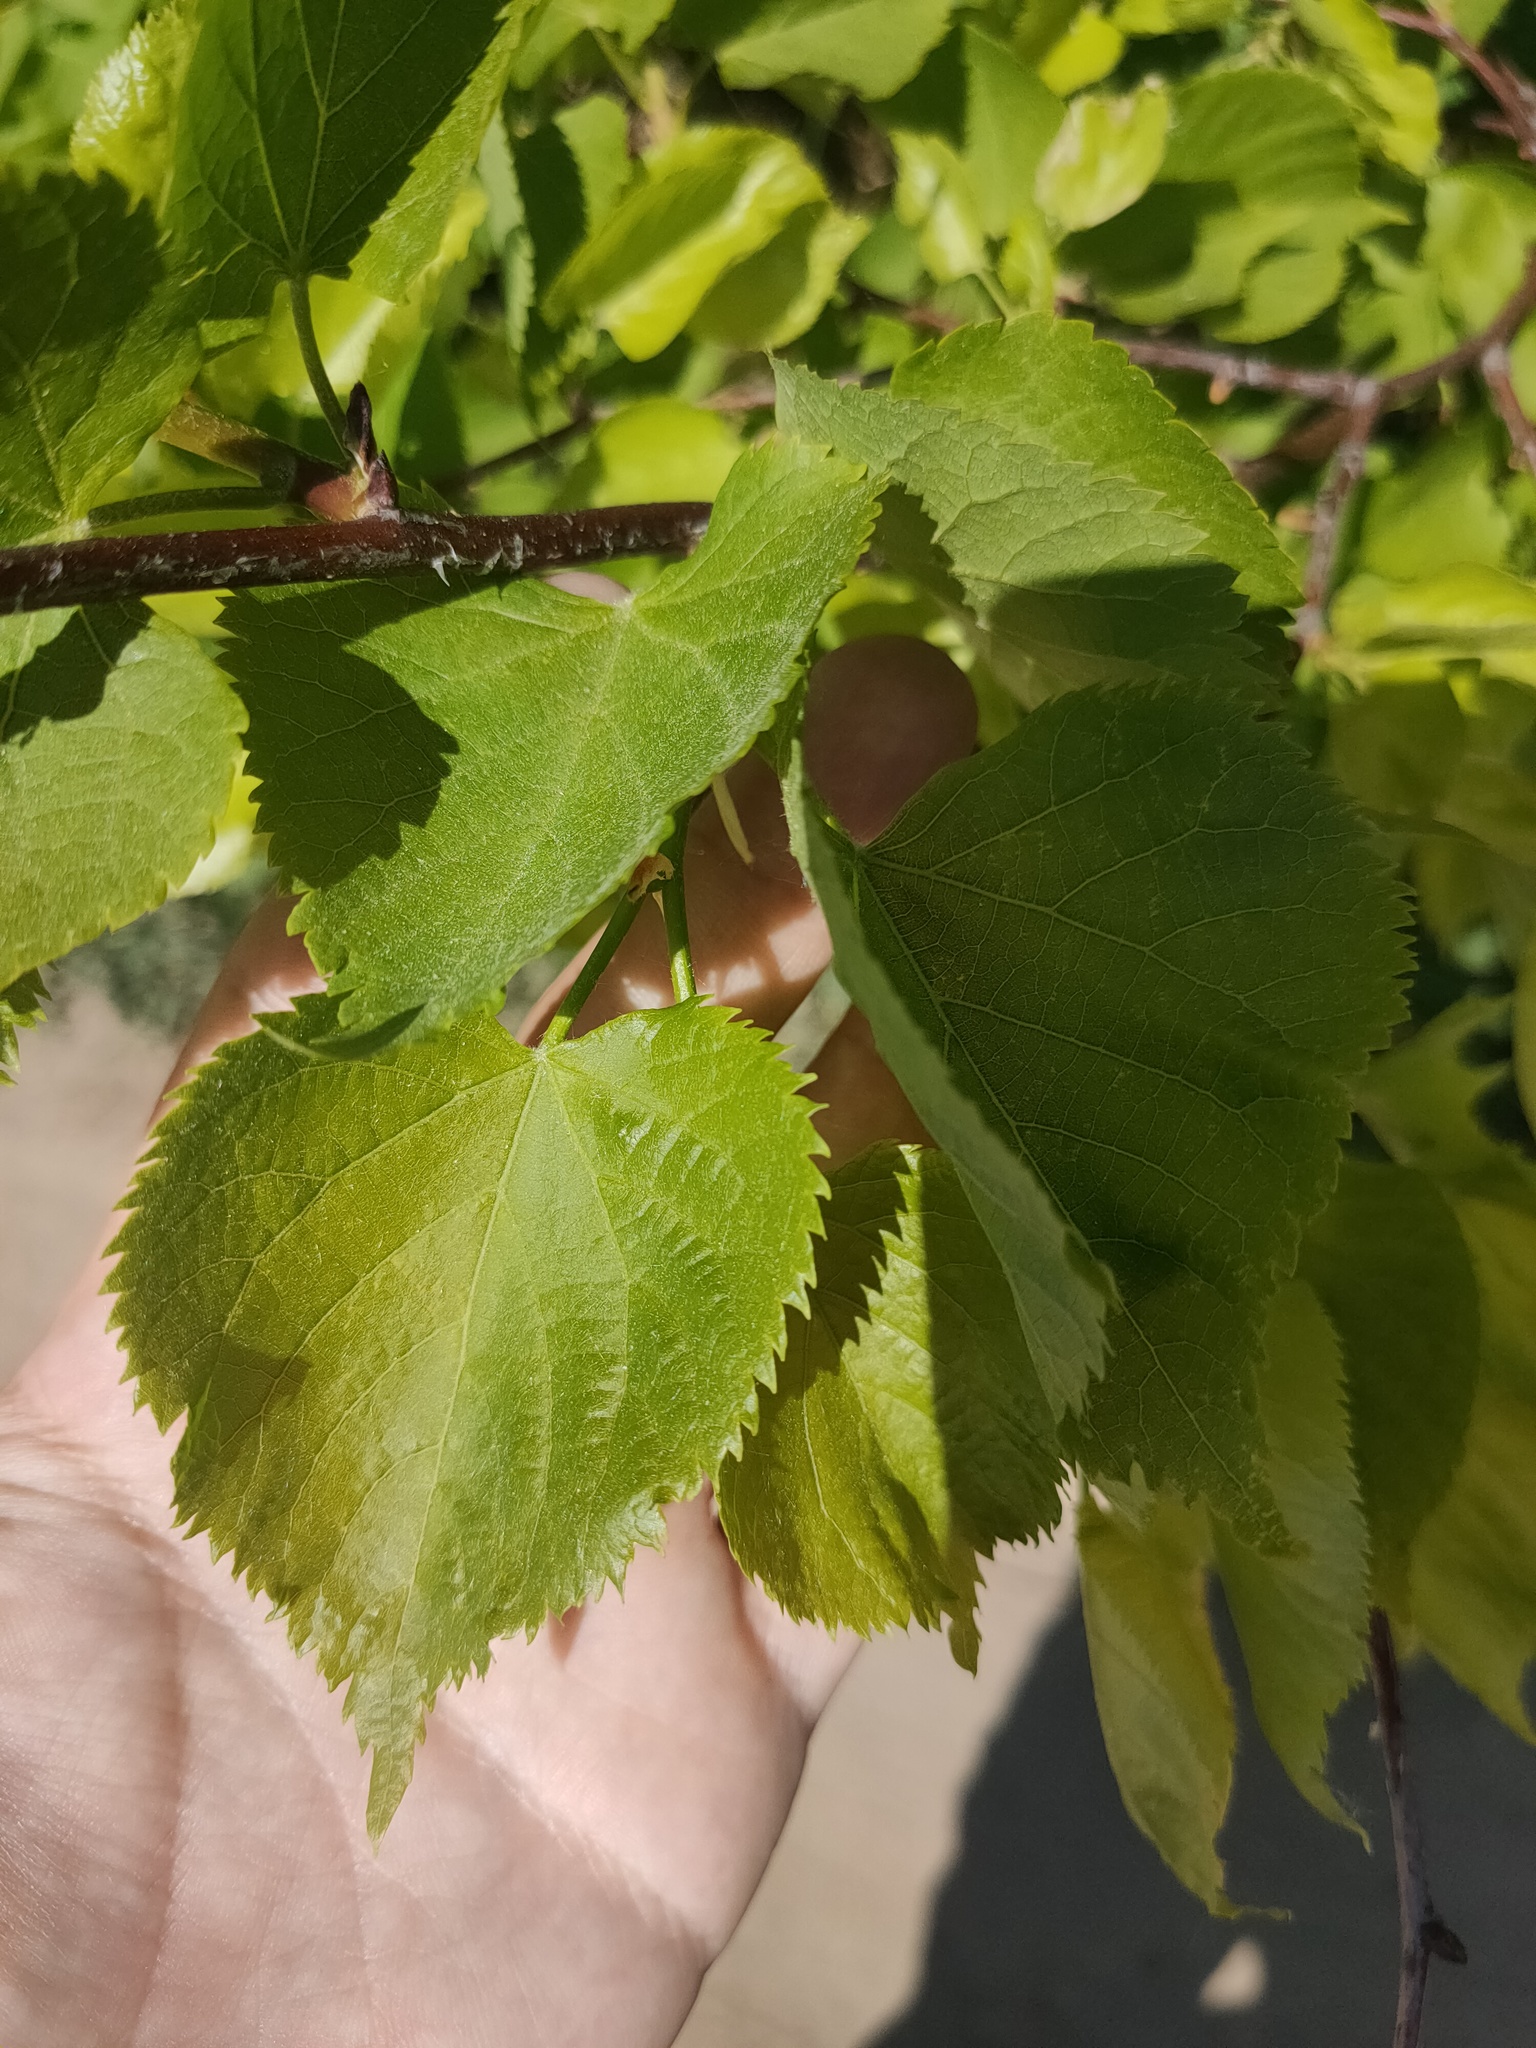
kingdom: Plantae
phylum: Tracheophyta
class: Magnoliopsida
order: Malvales
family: Malvaceae
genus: Tilia
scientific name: Tilia cordata
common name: Small-leaved lime
